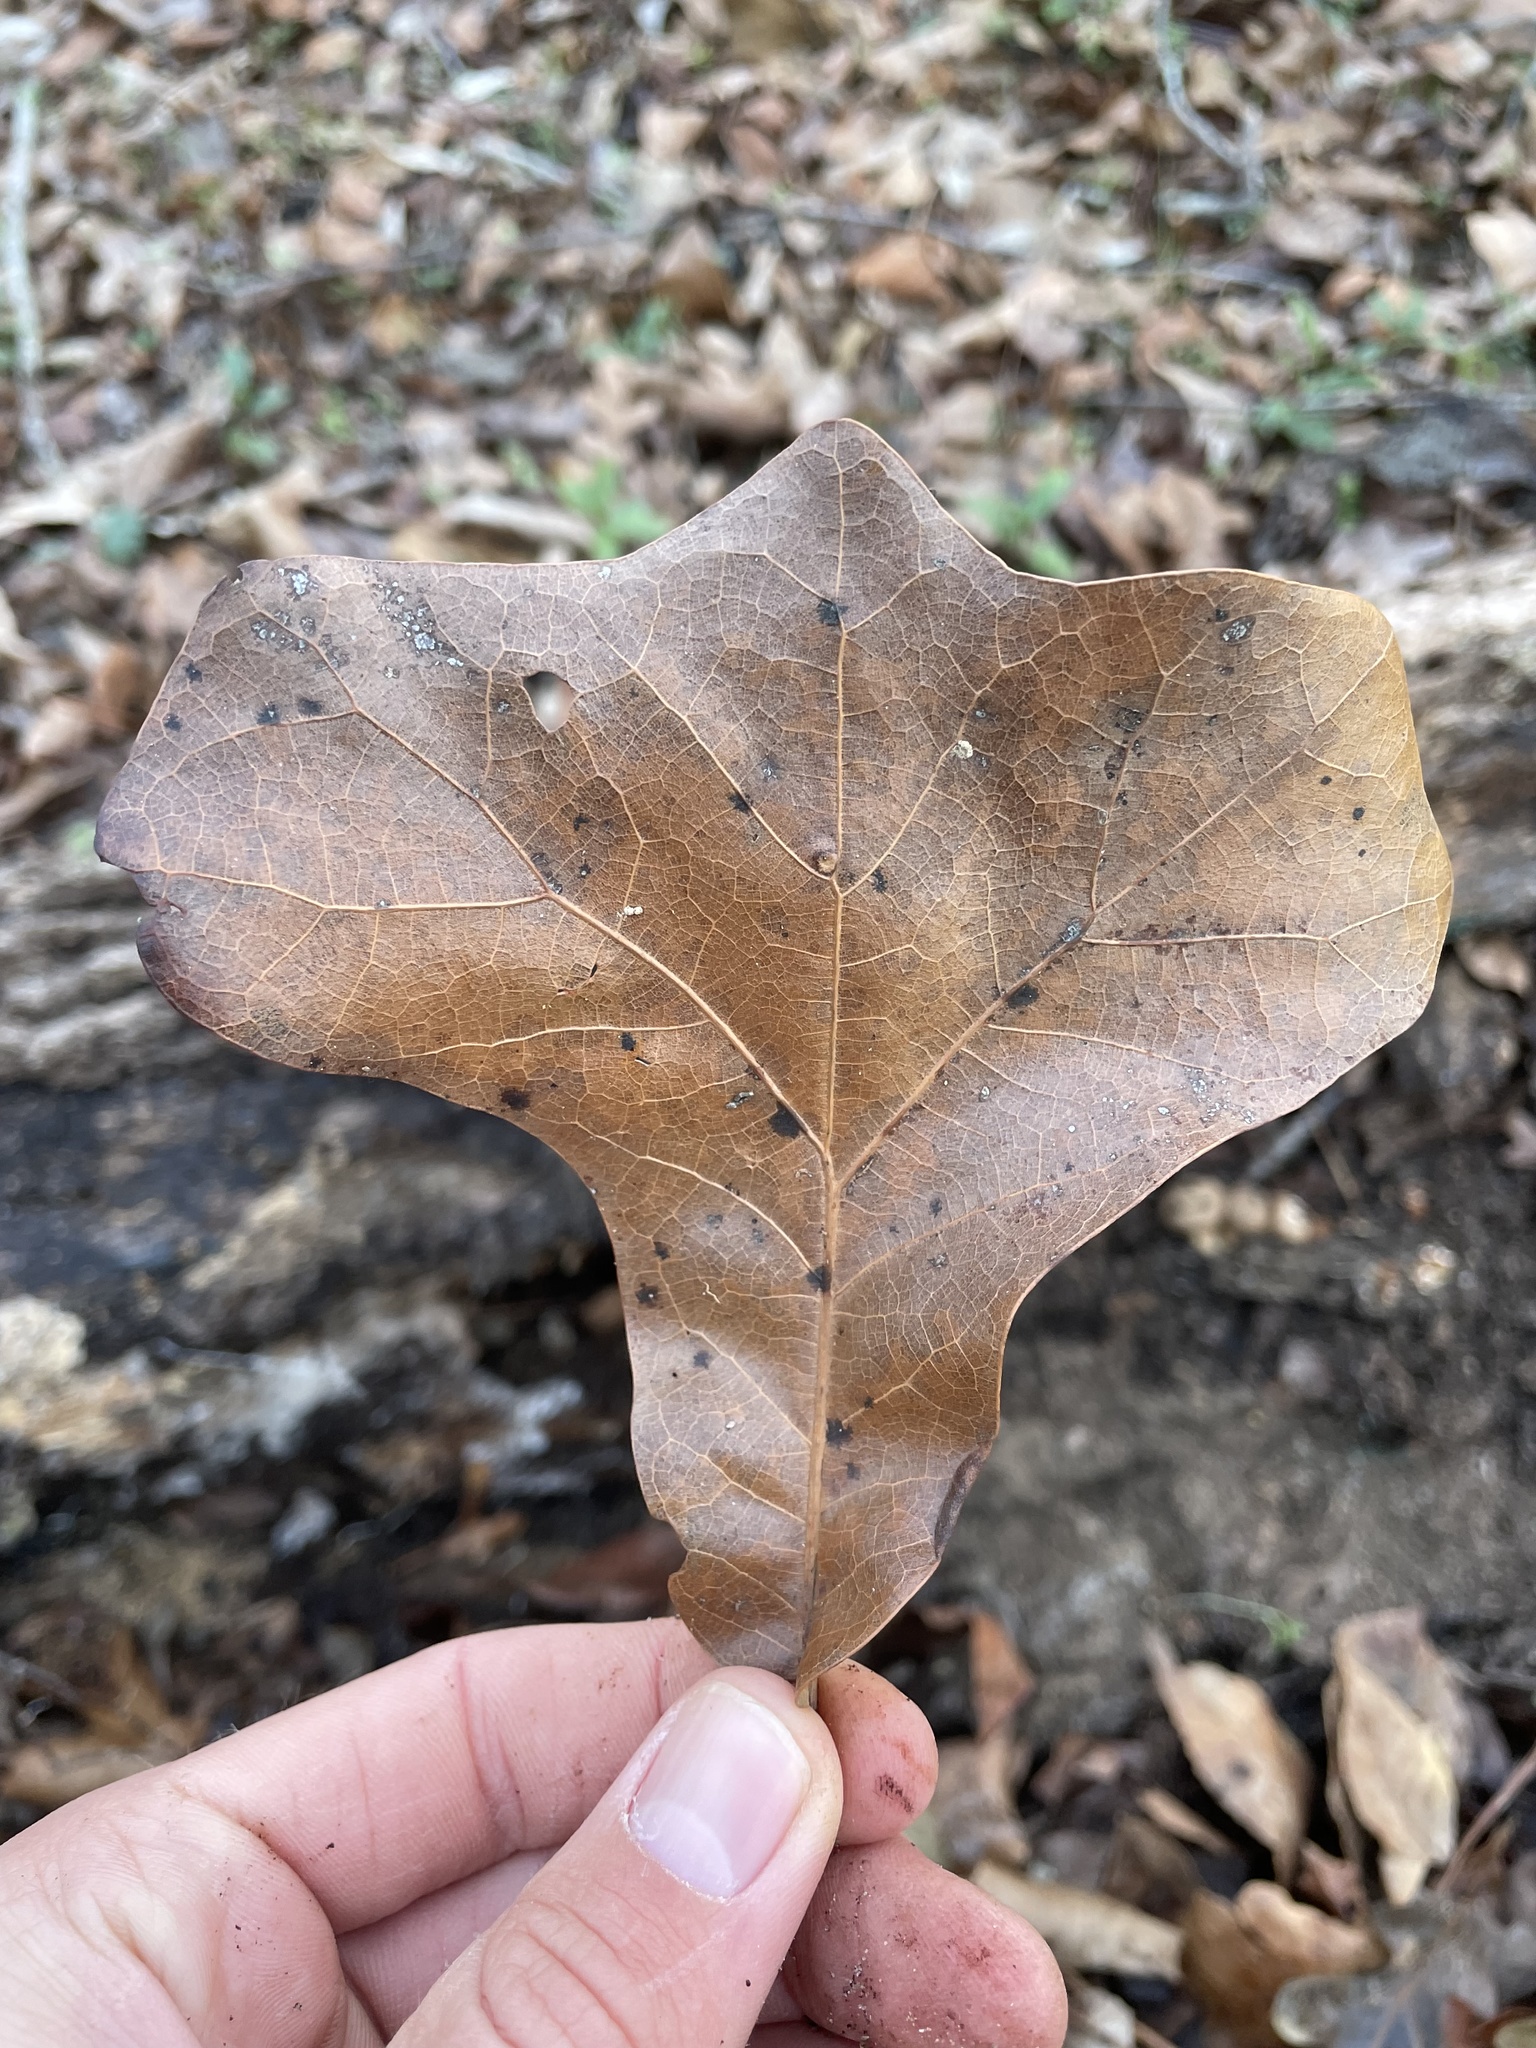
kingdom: Plantae
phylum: Tracheophyta
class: Magnoliopsida
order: Fagales
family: Fagaceae
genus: Quercus
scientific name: Quercus marilandica
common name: Blackjack oak
